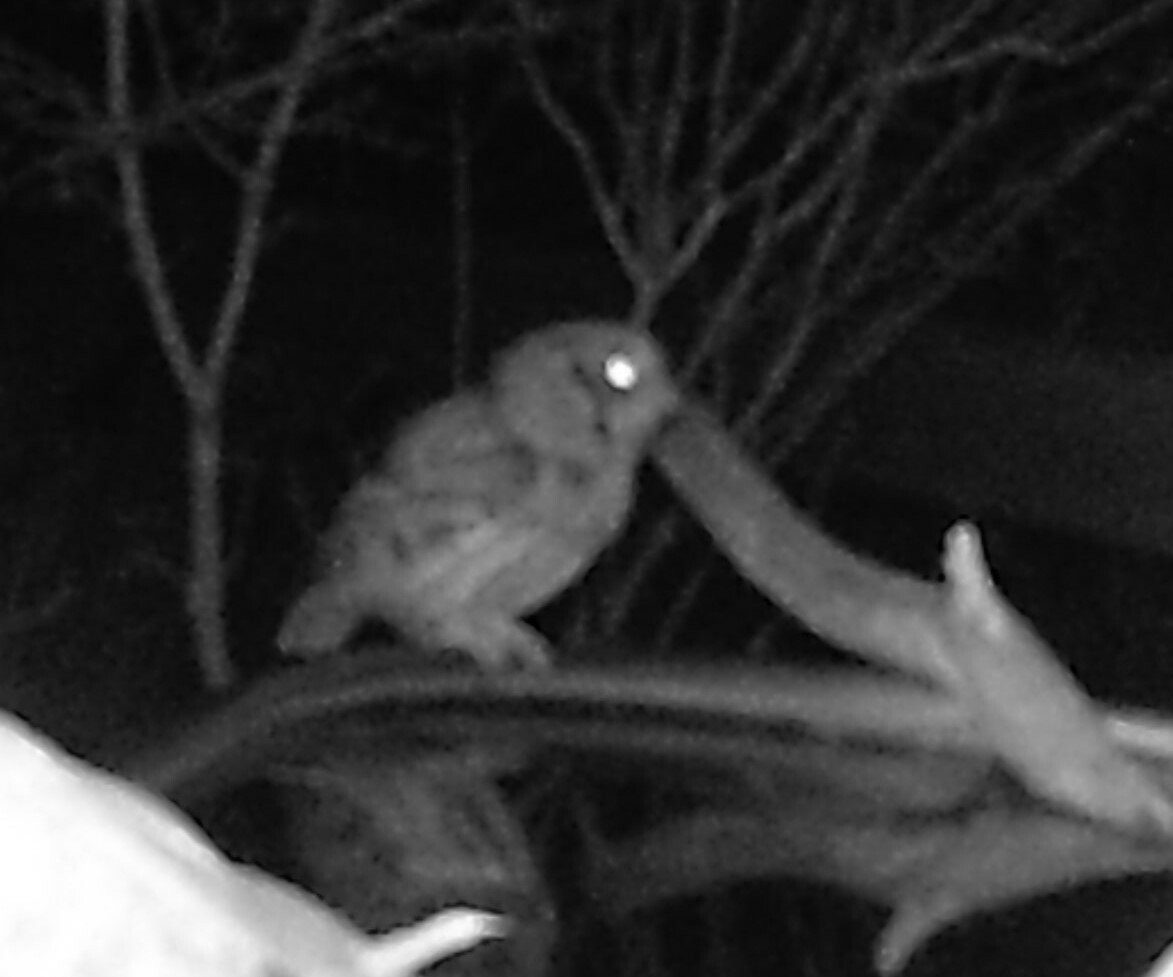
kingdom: Animalia
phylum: Chordata
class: Aves
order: Strigiformes
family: Strigidae
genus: Megascops
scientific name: Megascops asio
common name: Eastern screech-owl
